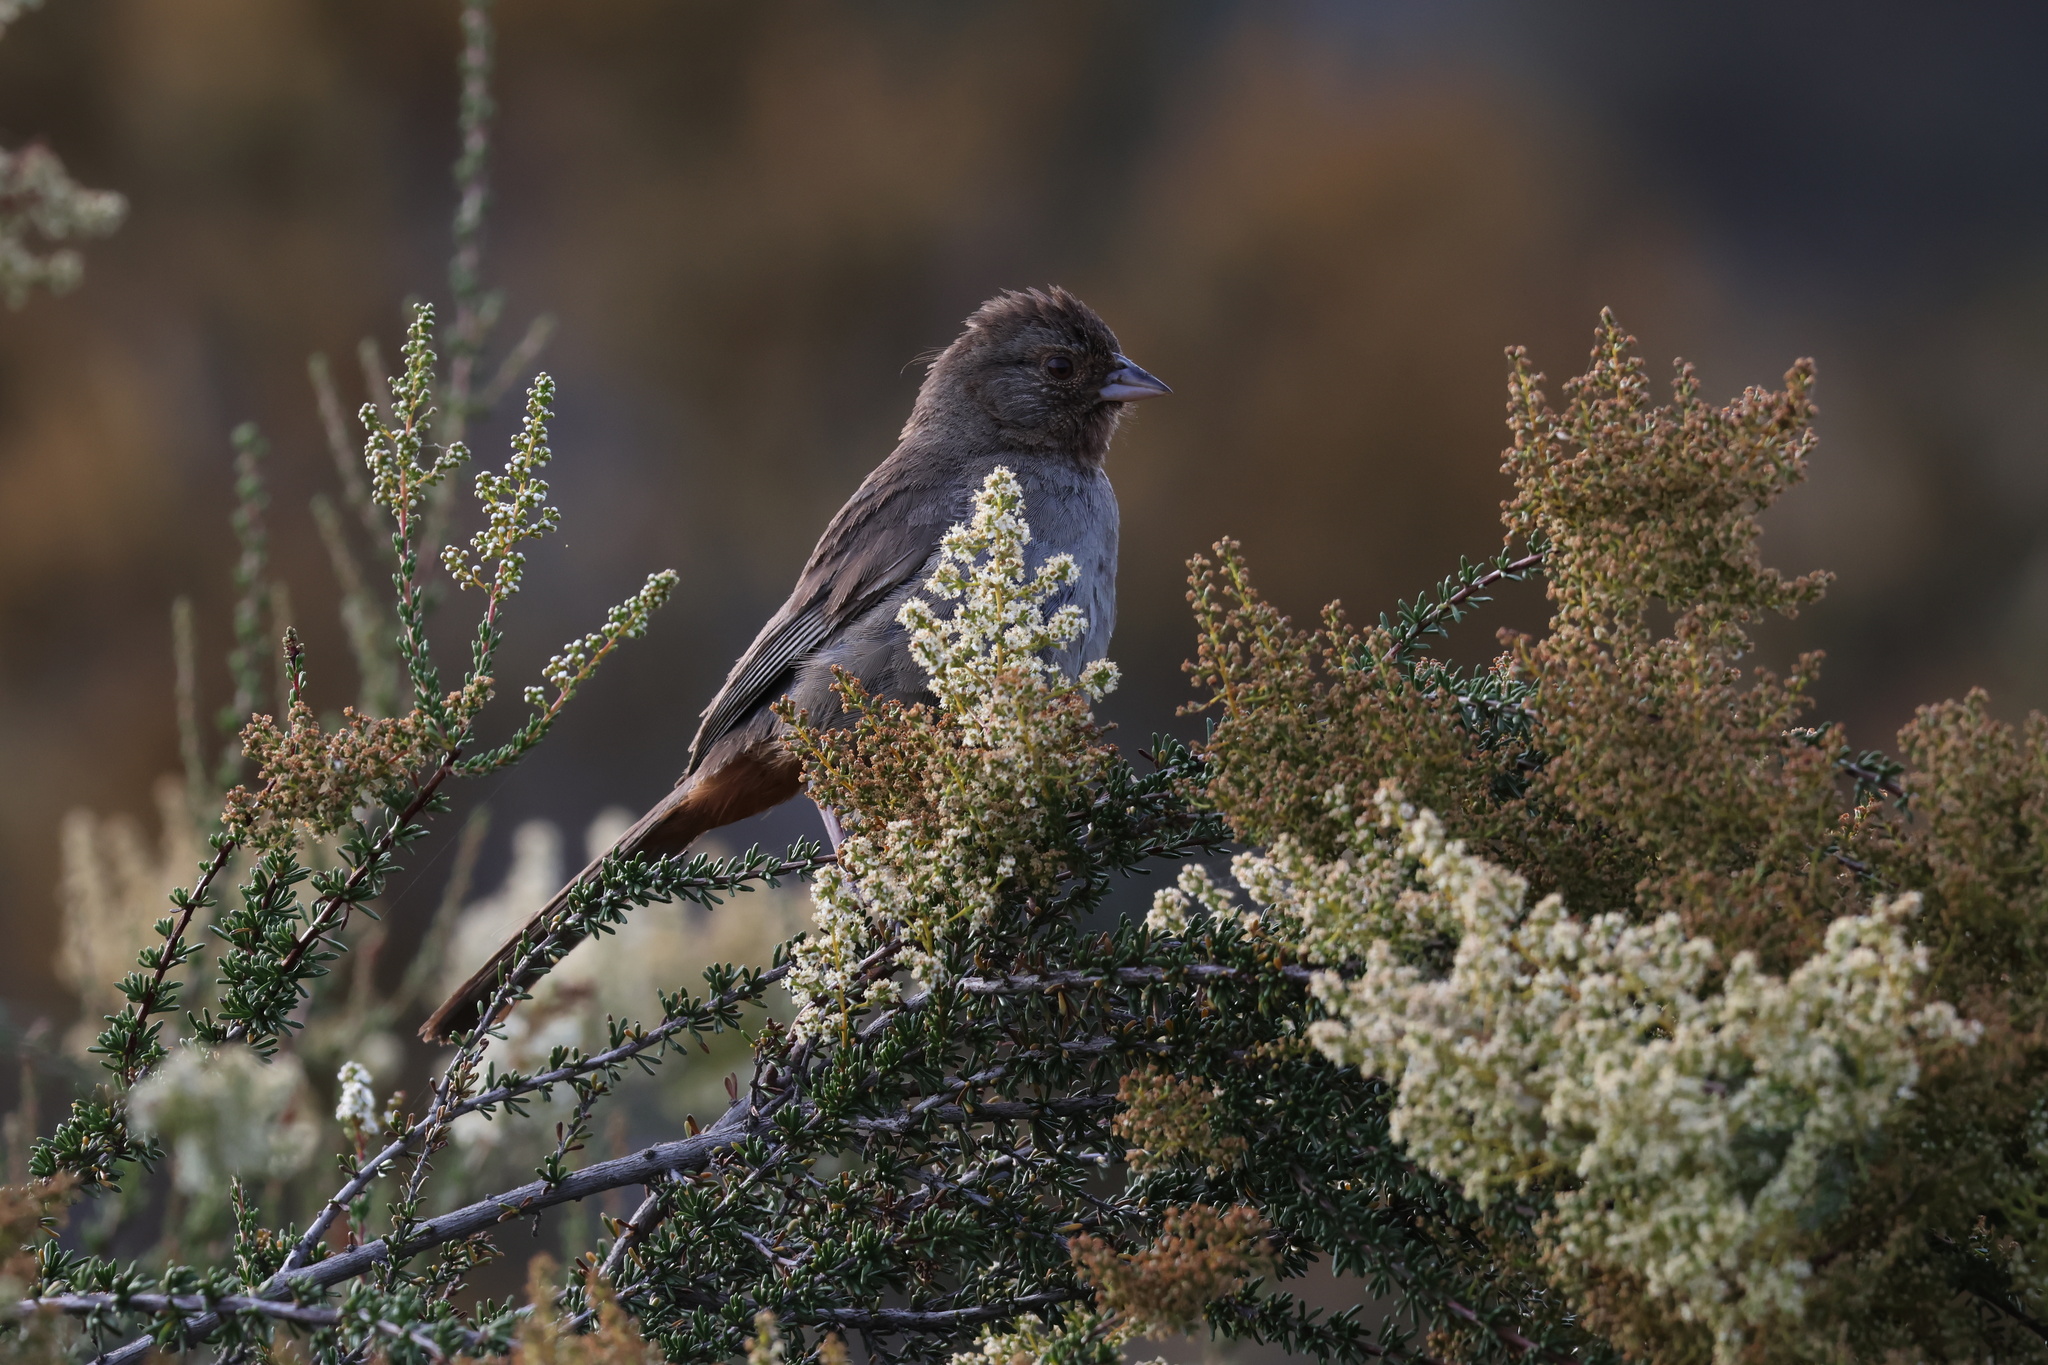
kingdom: Animalia
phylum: Chordata
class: Aves
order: Passeriformes
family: Passerellidae
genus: Melozone
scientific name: Melozone crissalis
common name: California towhee
